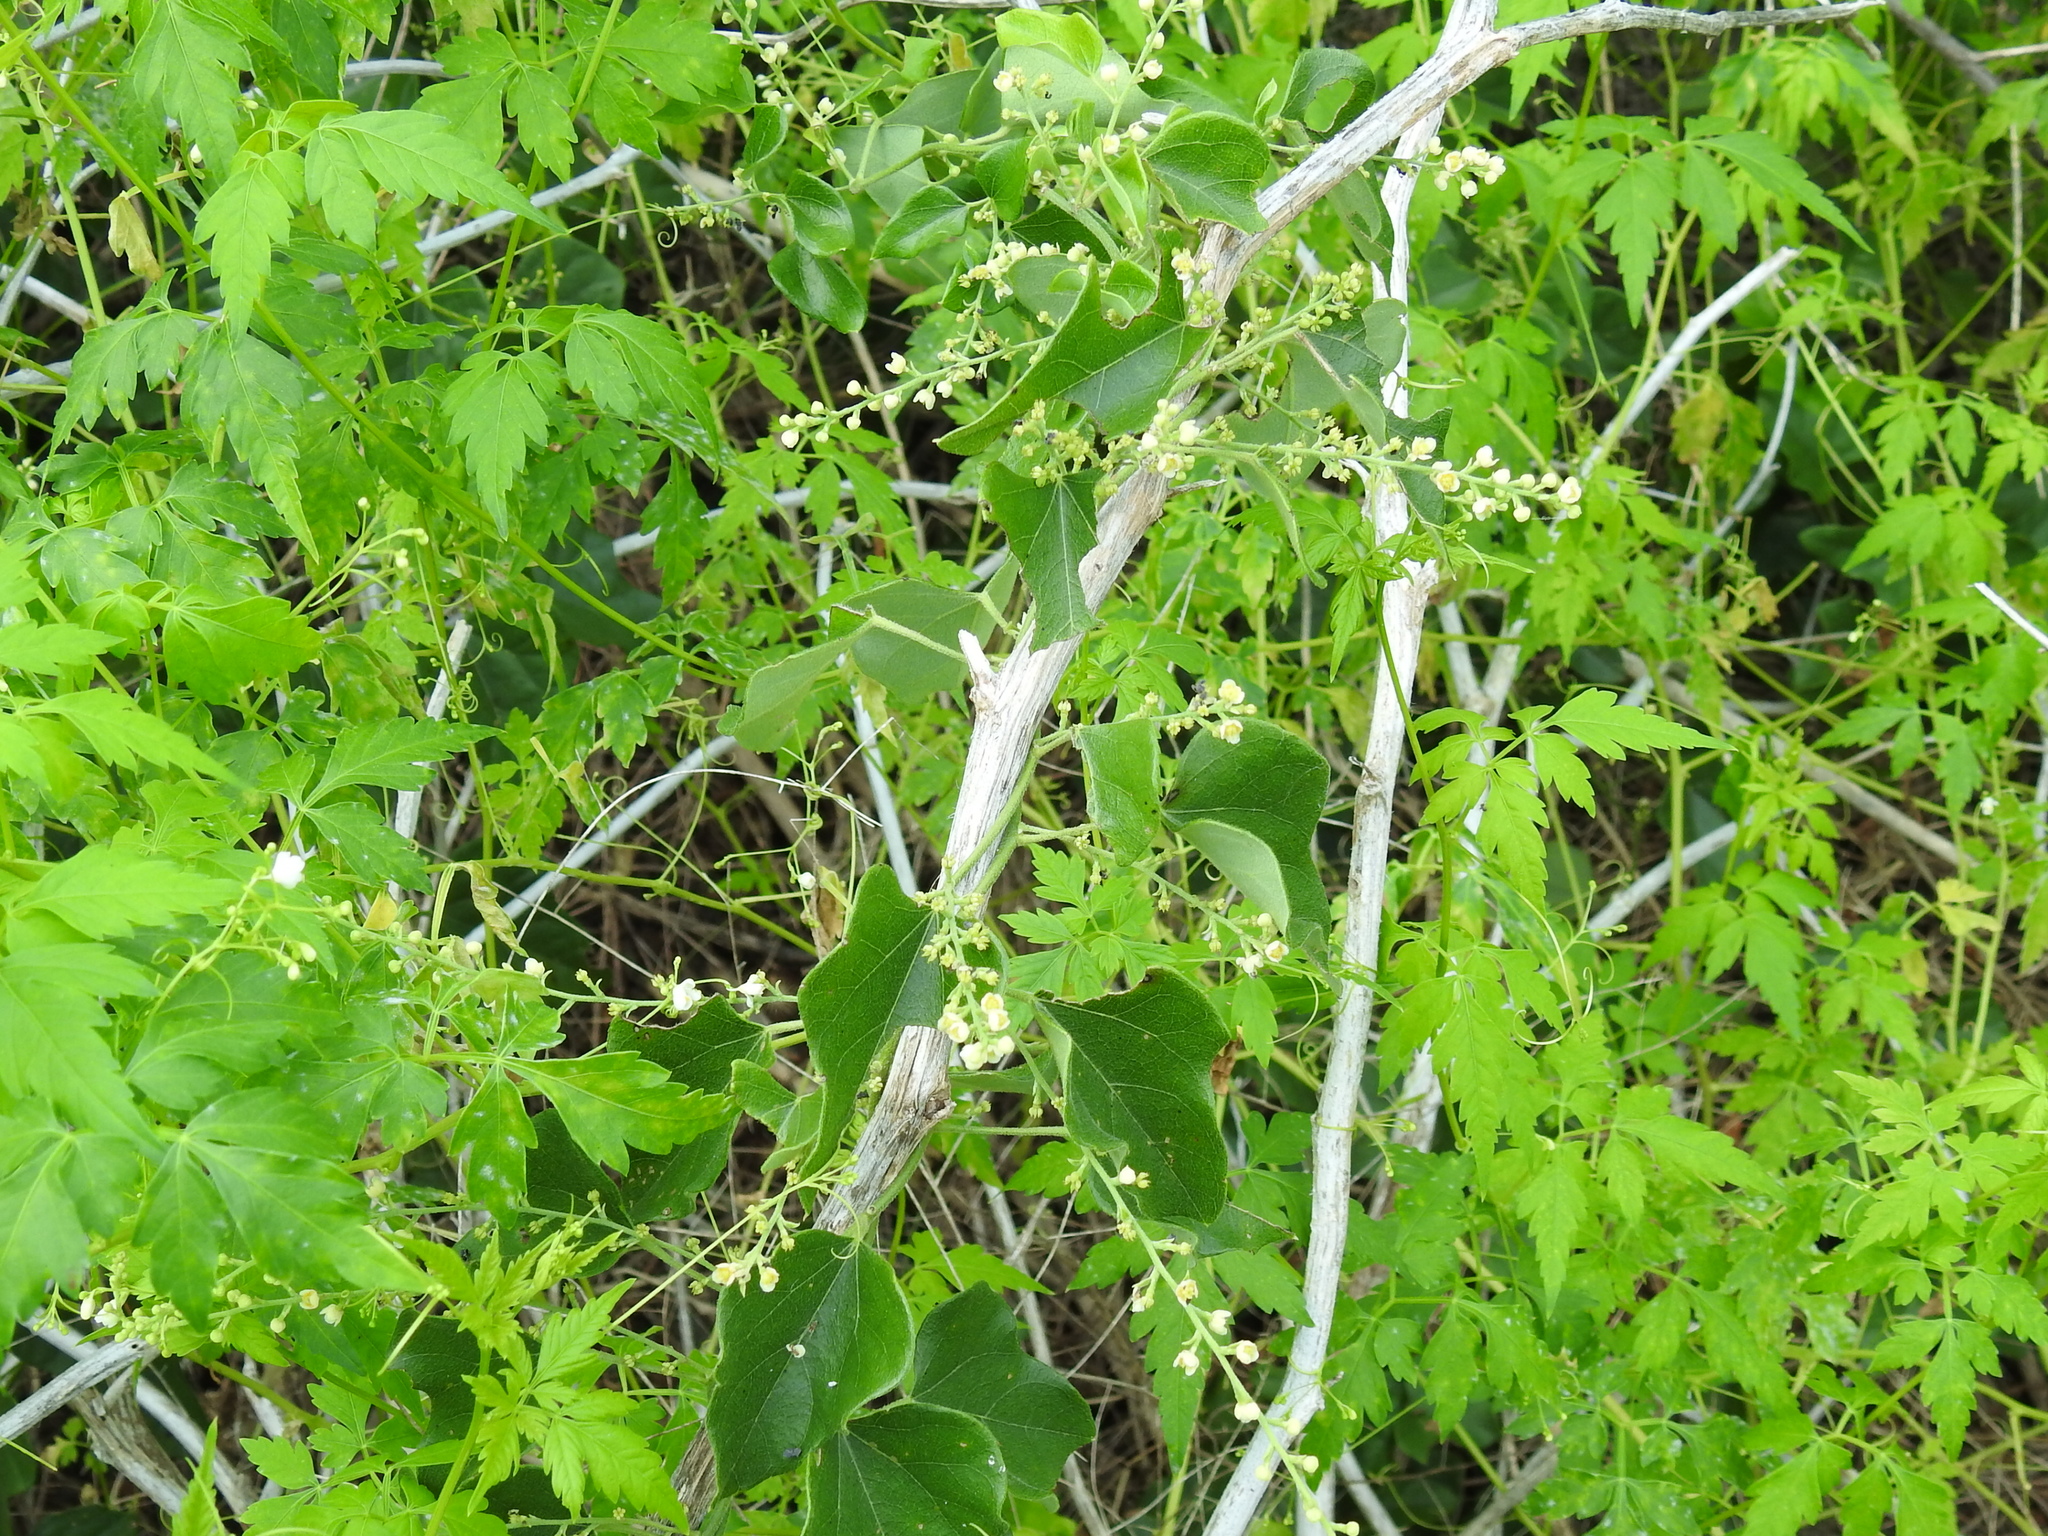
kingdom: Plantae
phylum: Tracheophyta
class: Magnoliopsida
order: Ranunculales
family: Menispermaceae
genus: Cocculus
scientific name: Cocculus carolinus
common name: Carolina moonseed
